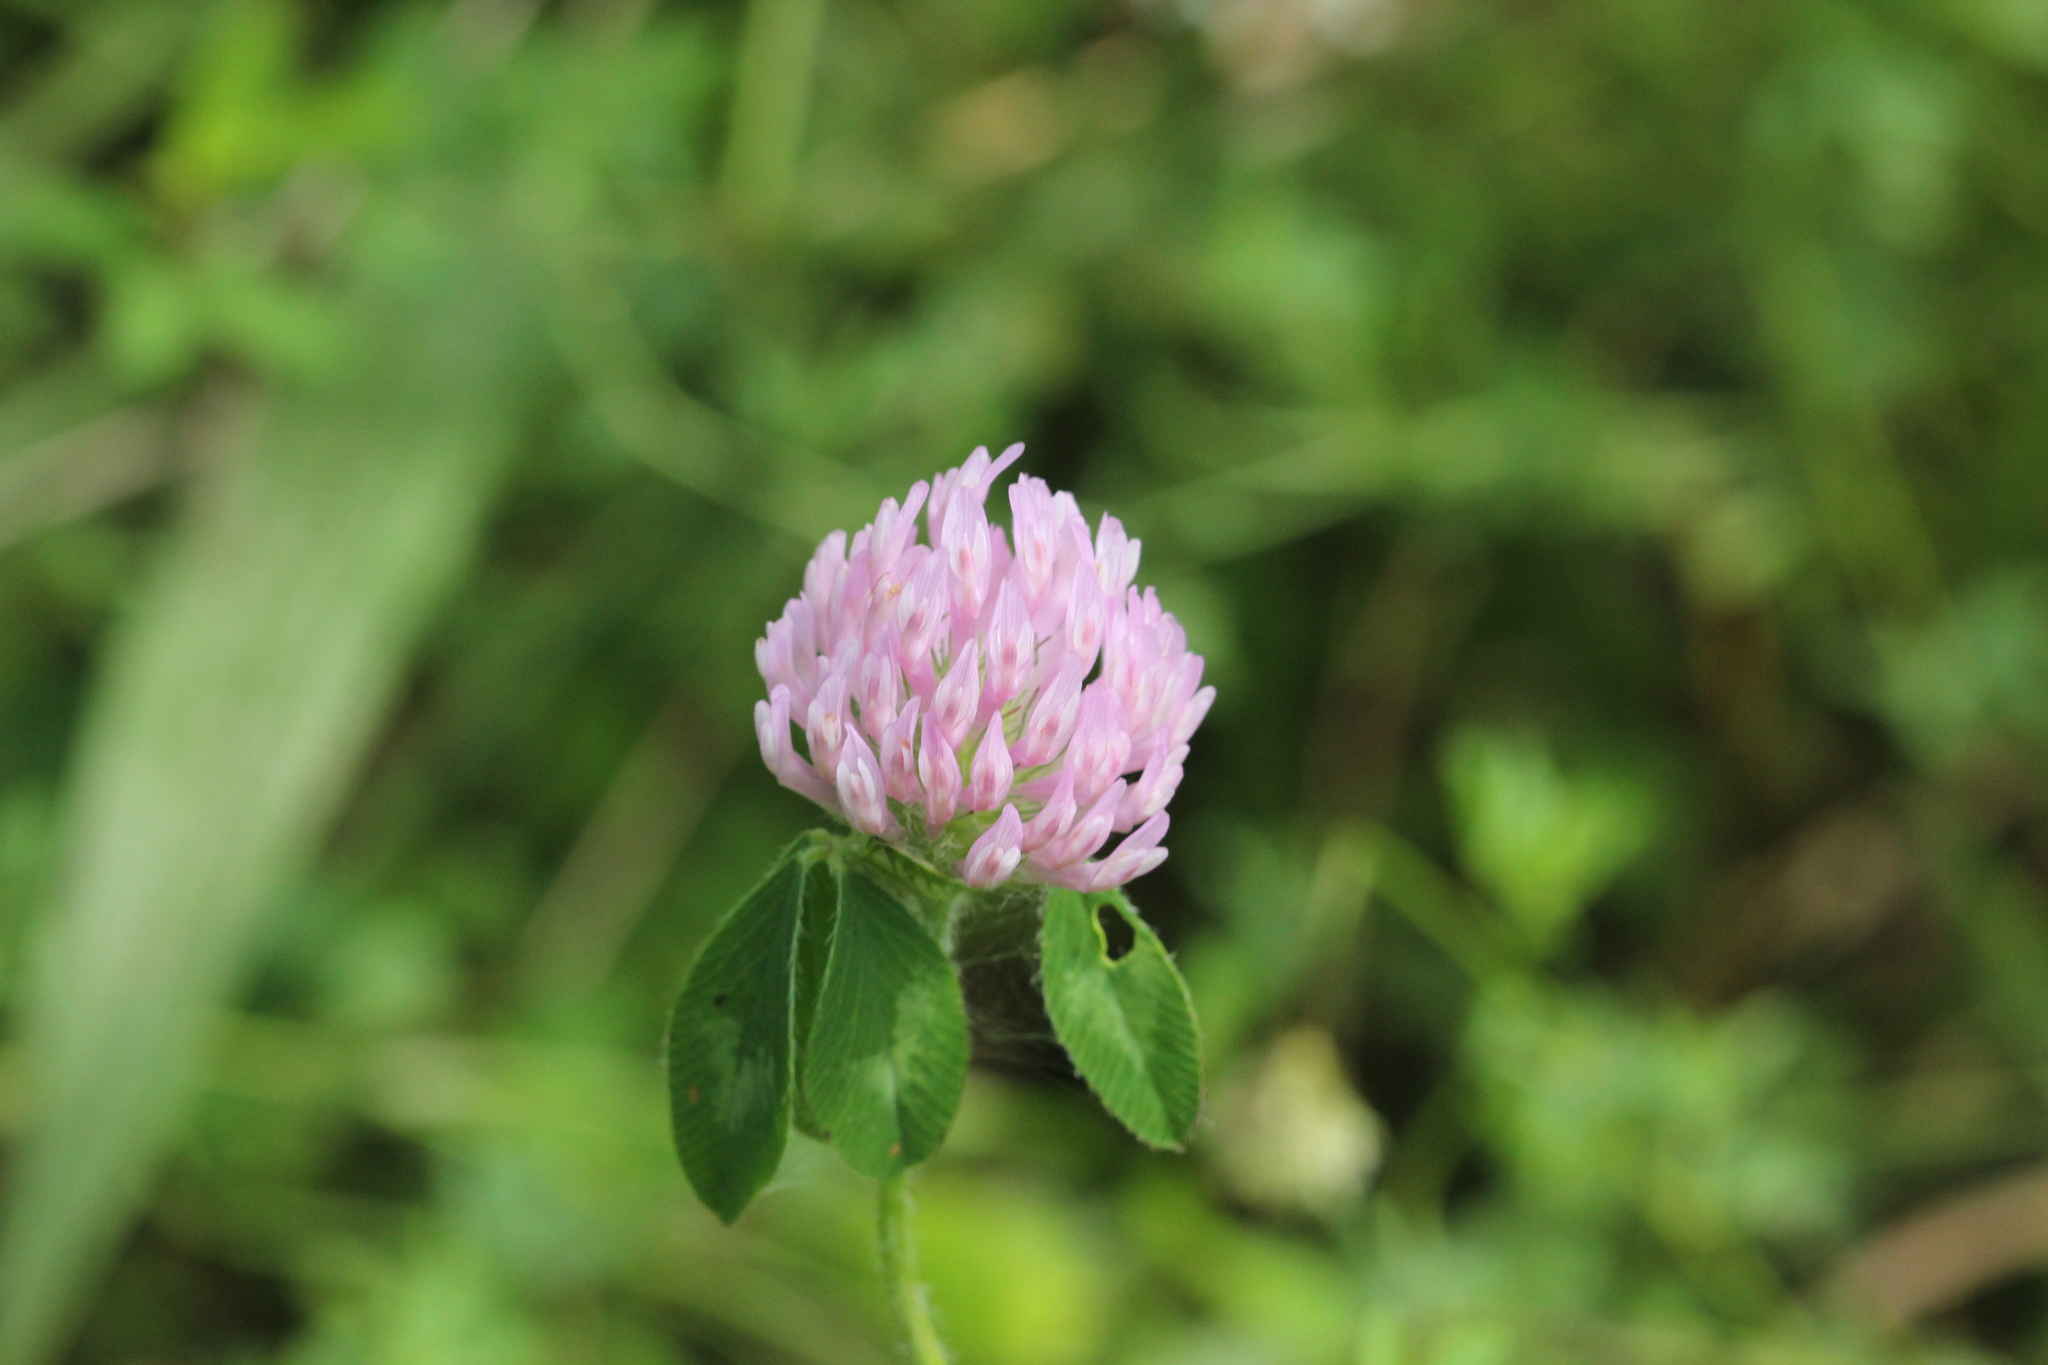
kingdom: Plantae
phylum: Tracheophyta
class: Magnoliopsida
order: Fabales
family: Fabaceae
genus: Trifolium
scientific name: Trifolium pratense
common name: Red clover
